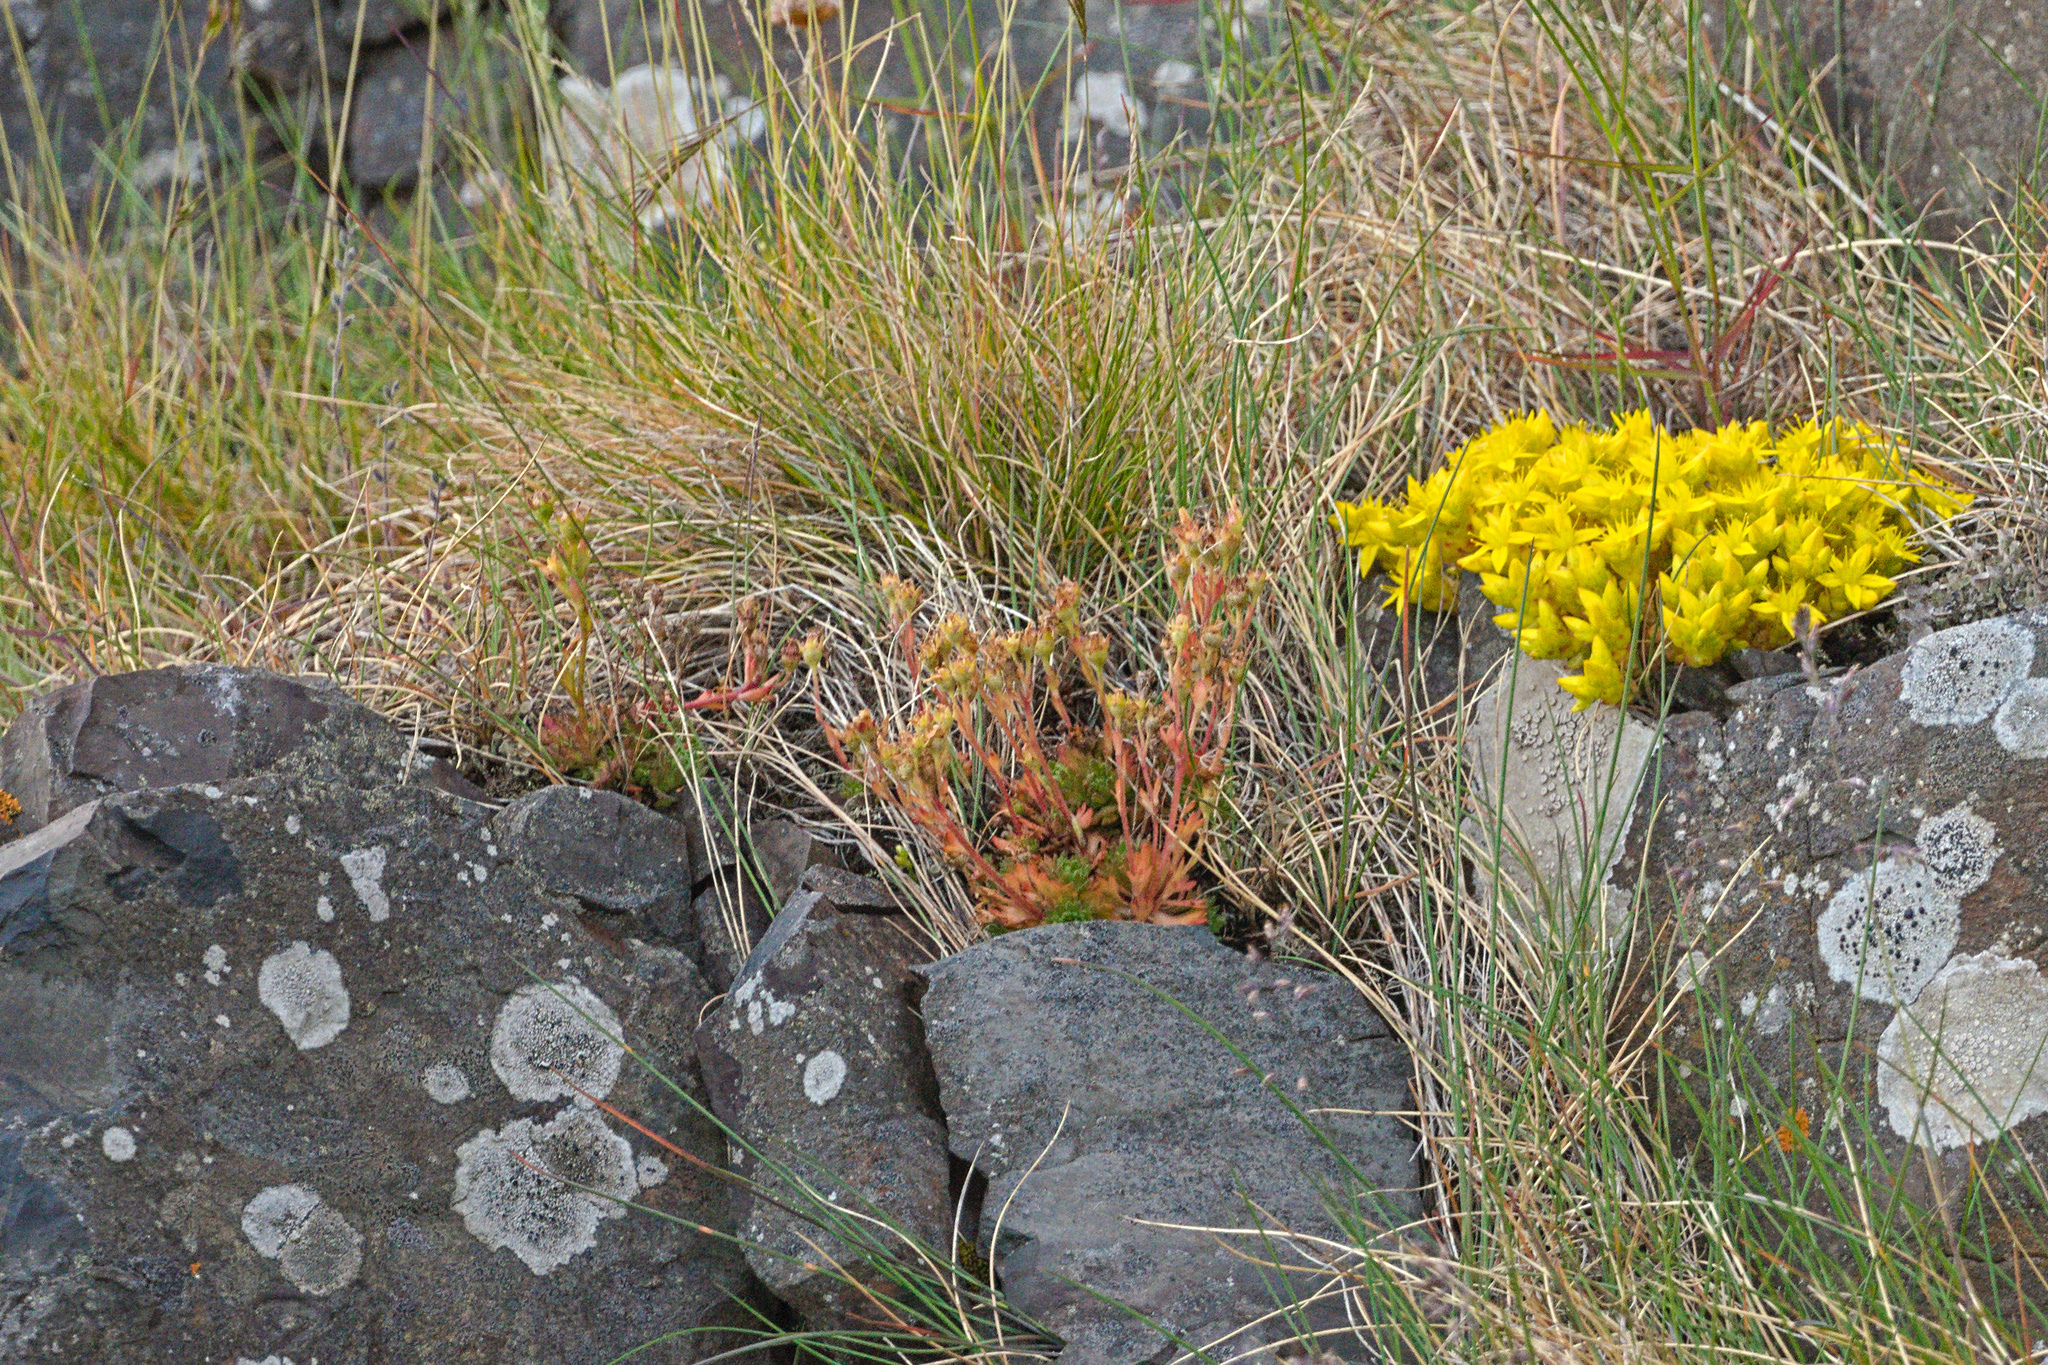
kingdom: Plantae
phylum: Tracheophyta
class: Magnoliopsida
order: Saxifragales
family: Saxifragaceae
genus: Saxifraga
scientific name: Saxifraga cespitosa
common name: Tufted saxifrage
